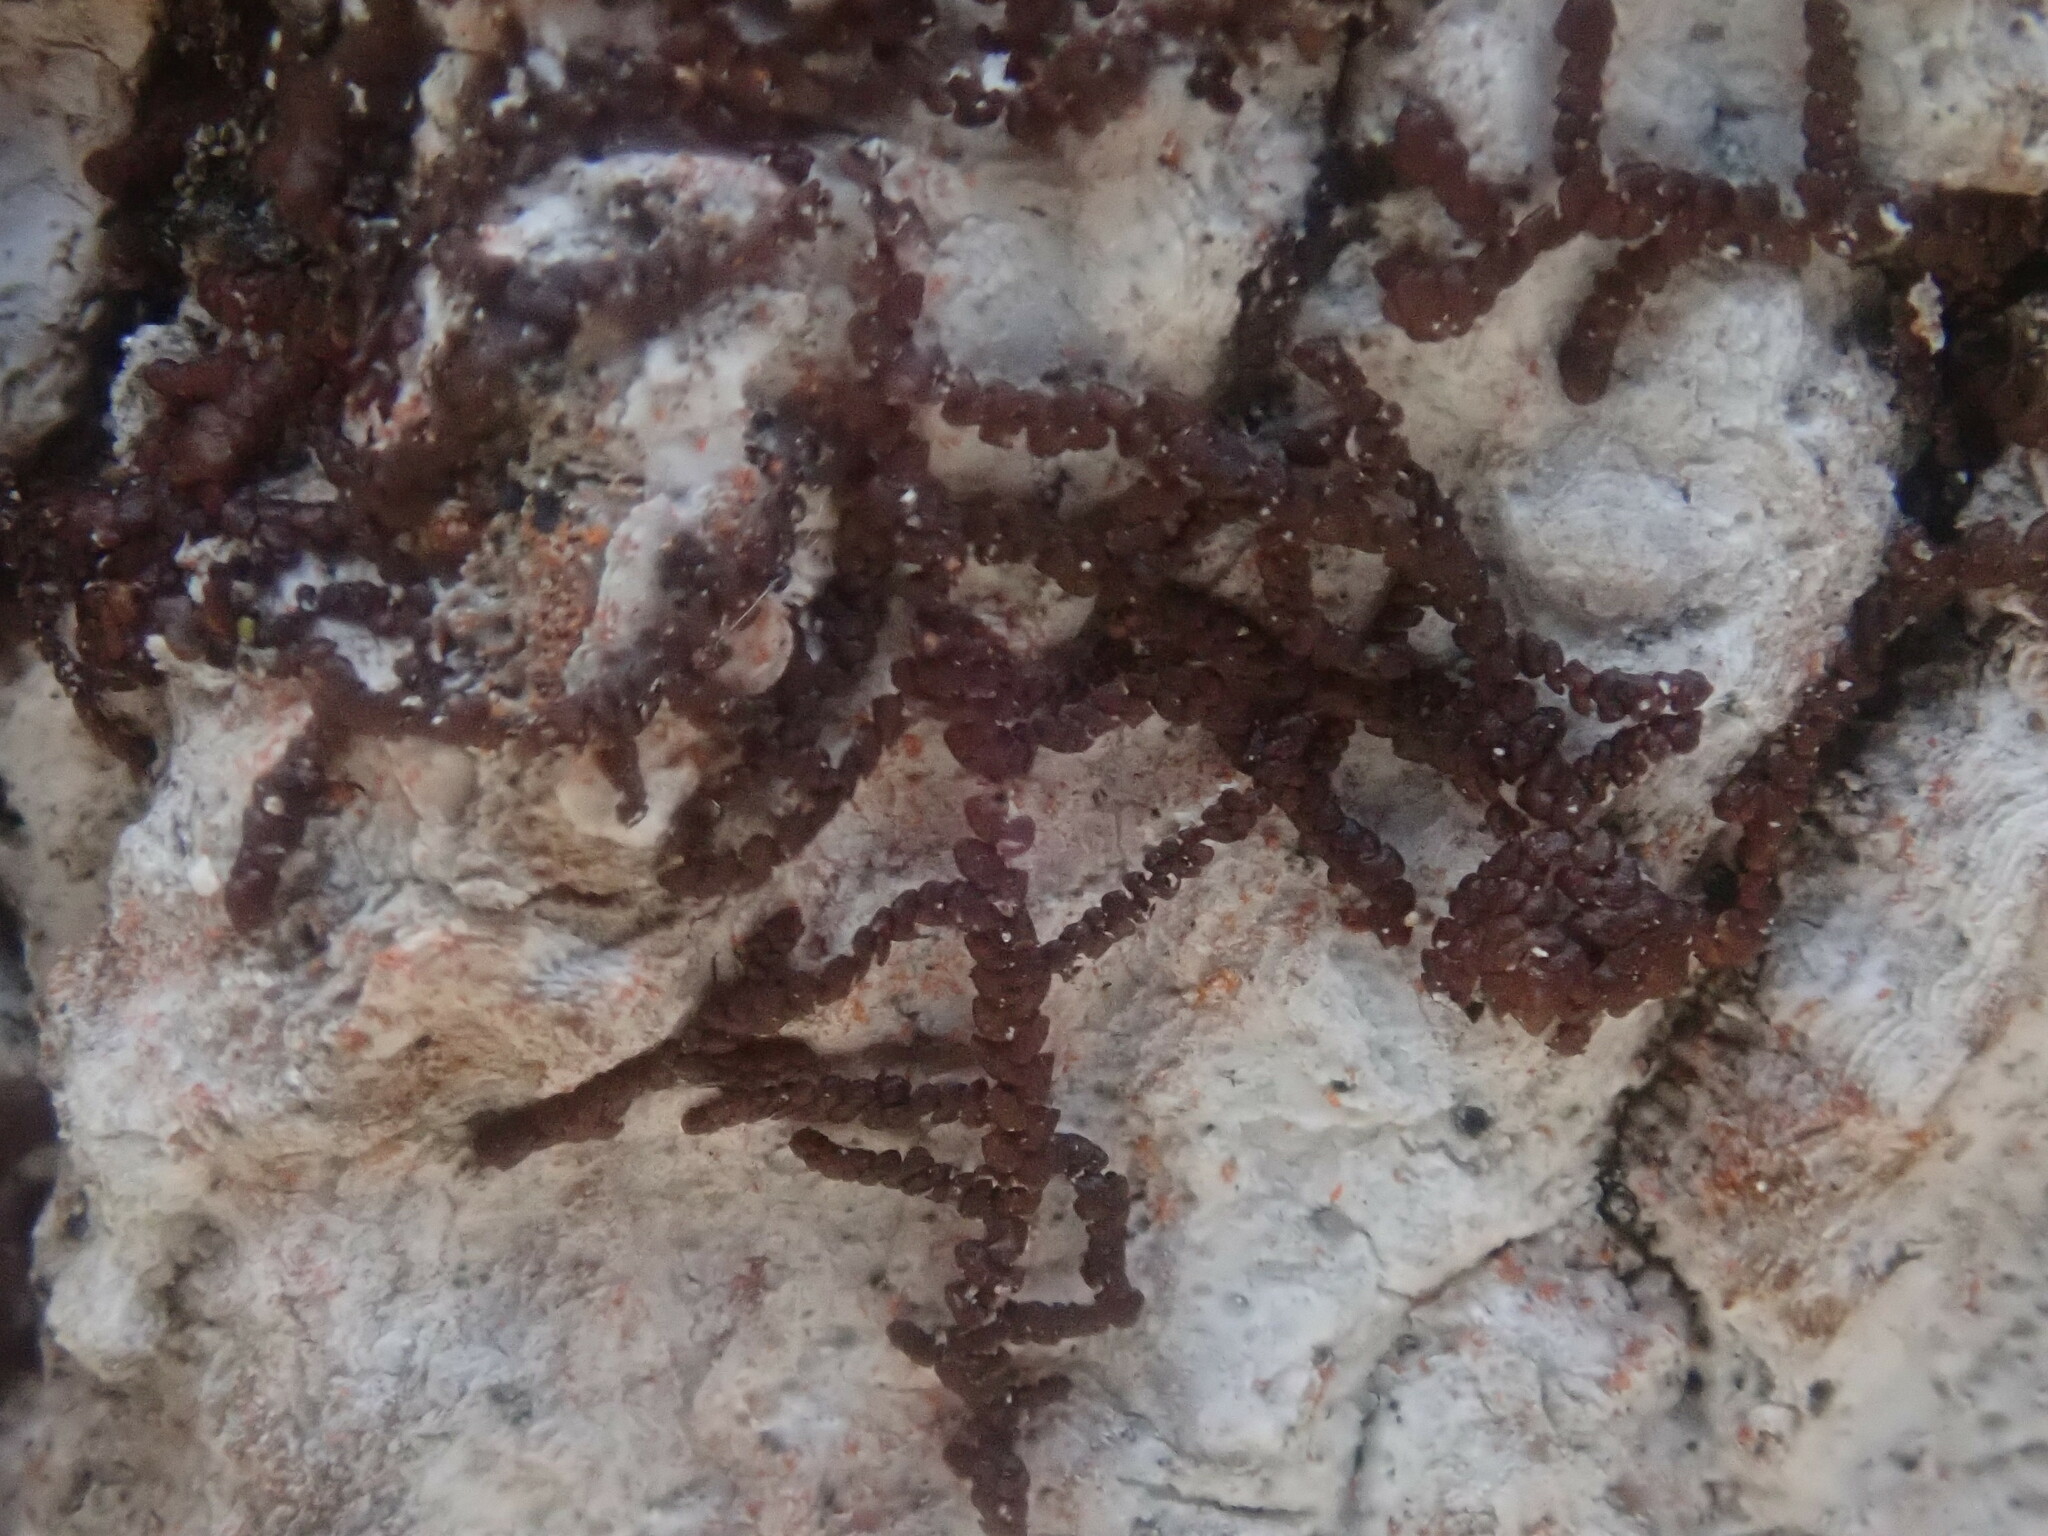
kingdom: Plantae
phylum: Marchantiophyta
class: Jungermanniopsida
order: Porellales
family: Frullaniaceae
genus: Frullania
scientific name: Frullania
